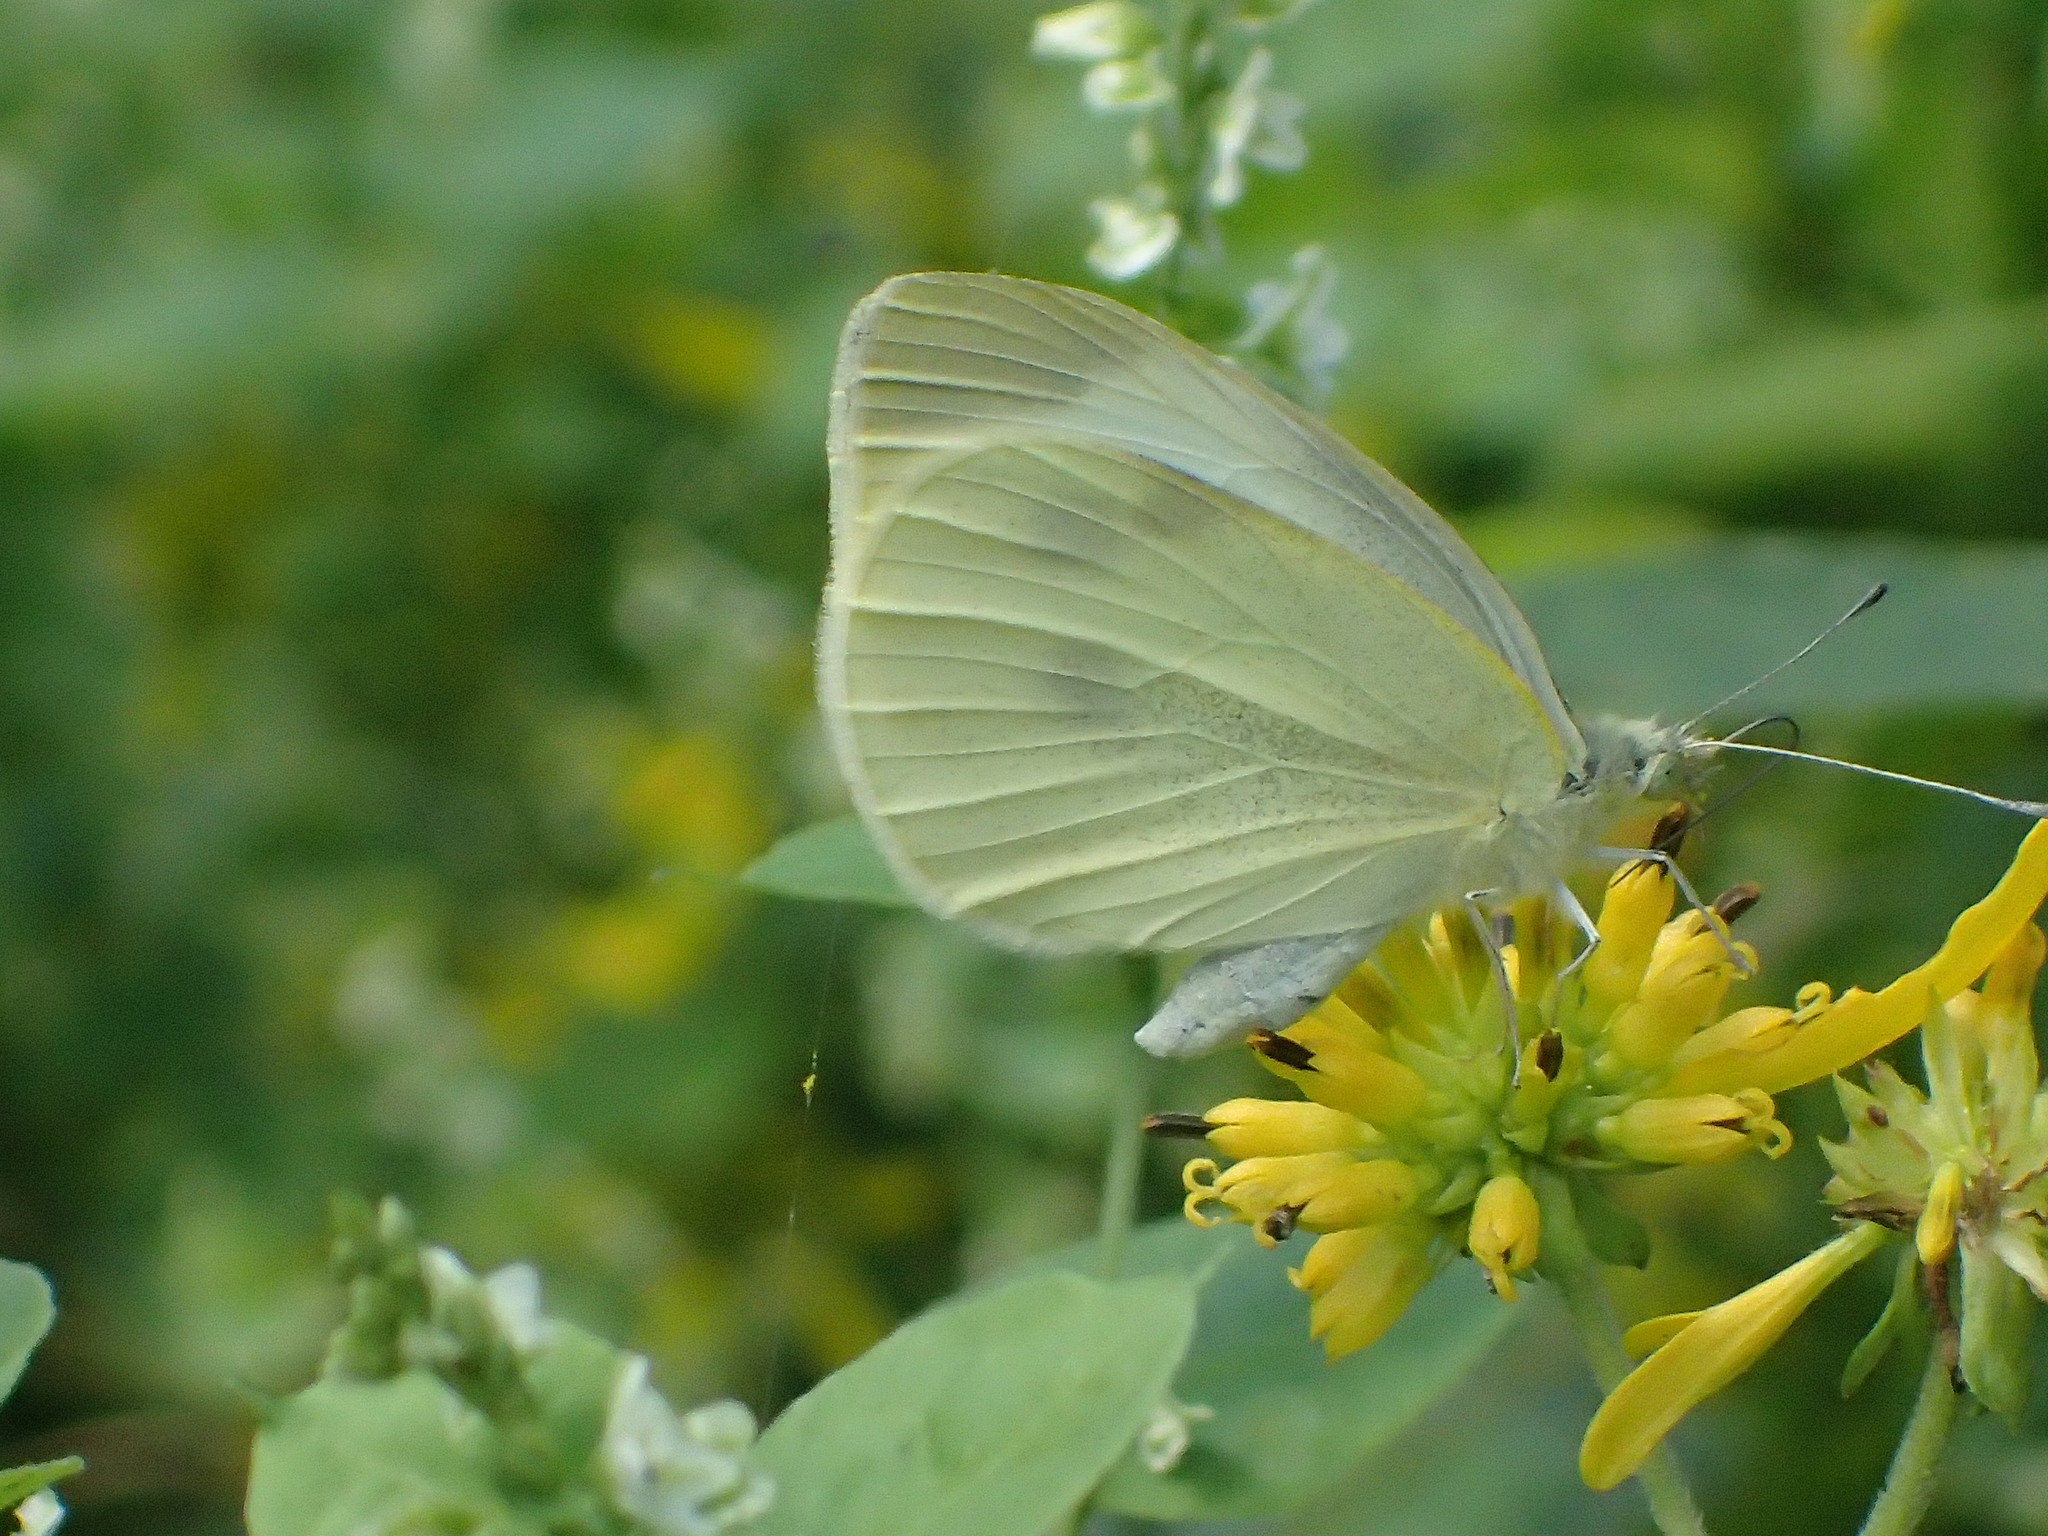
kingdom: Animalia
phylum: Arthropoda
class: Insecta
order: Lepidoptera
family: Pieridae
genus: Pieris
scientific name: Pieris rapae
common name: Small white
